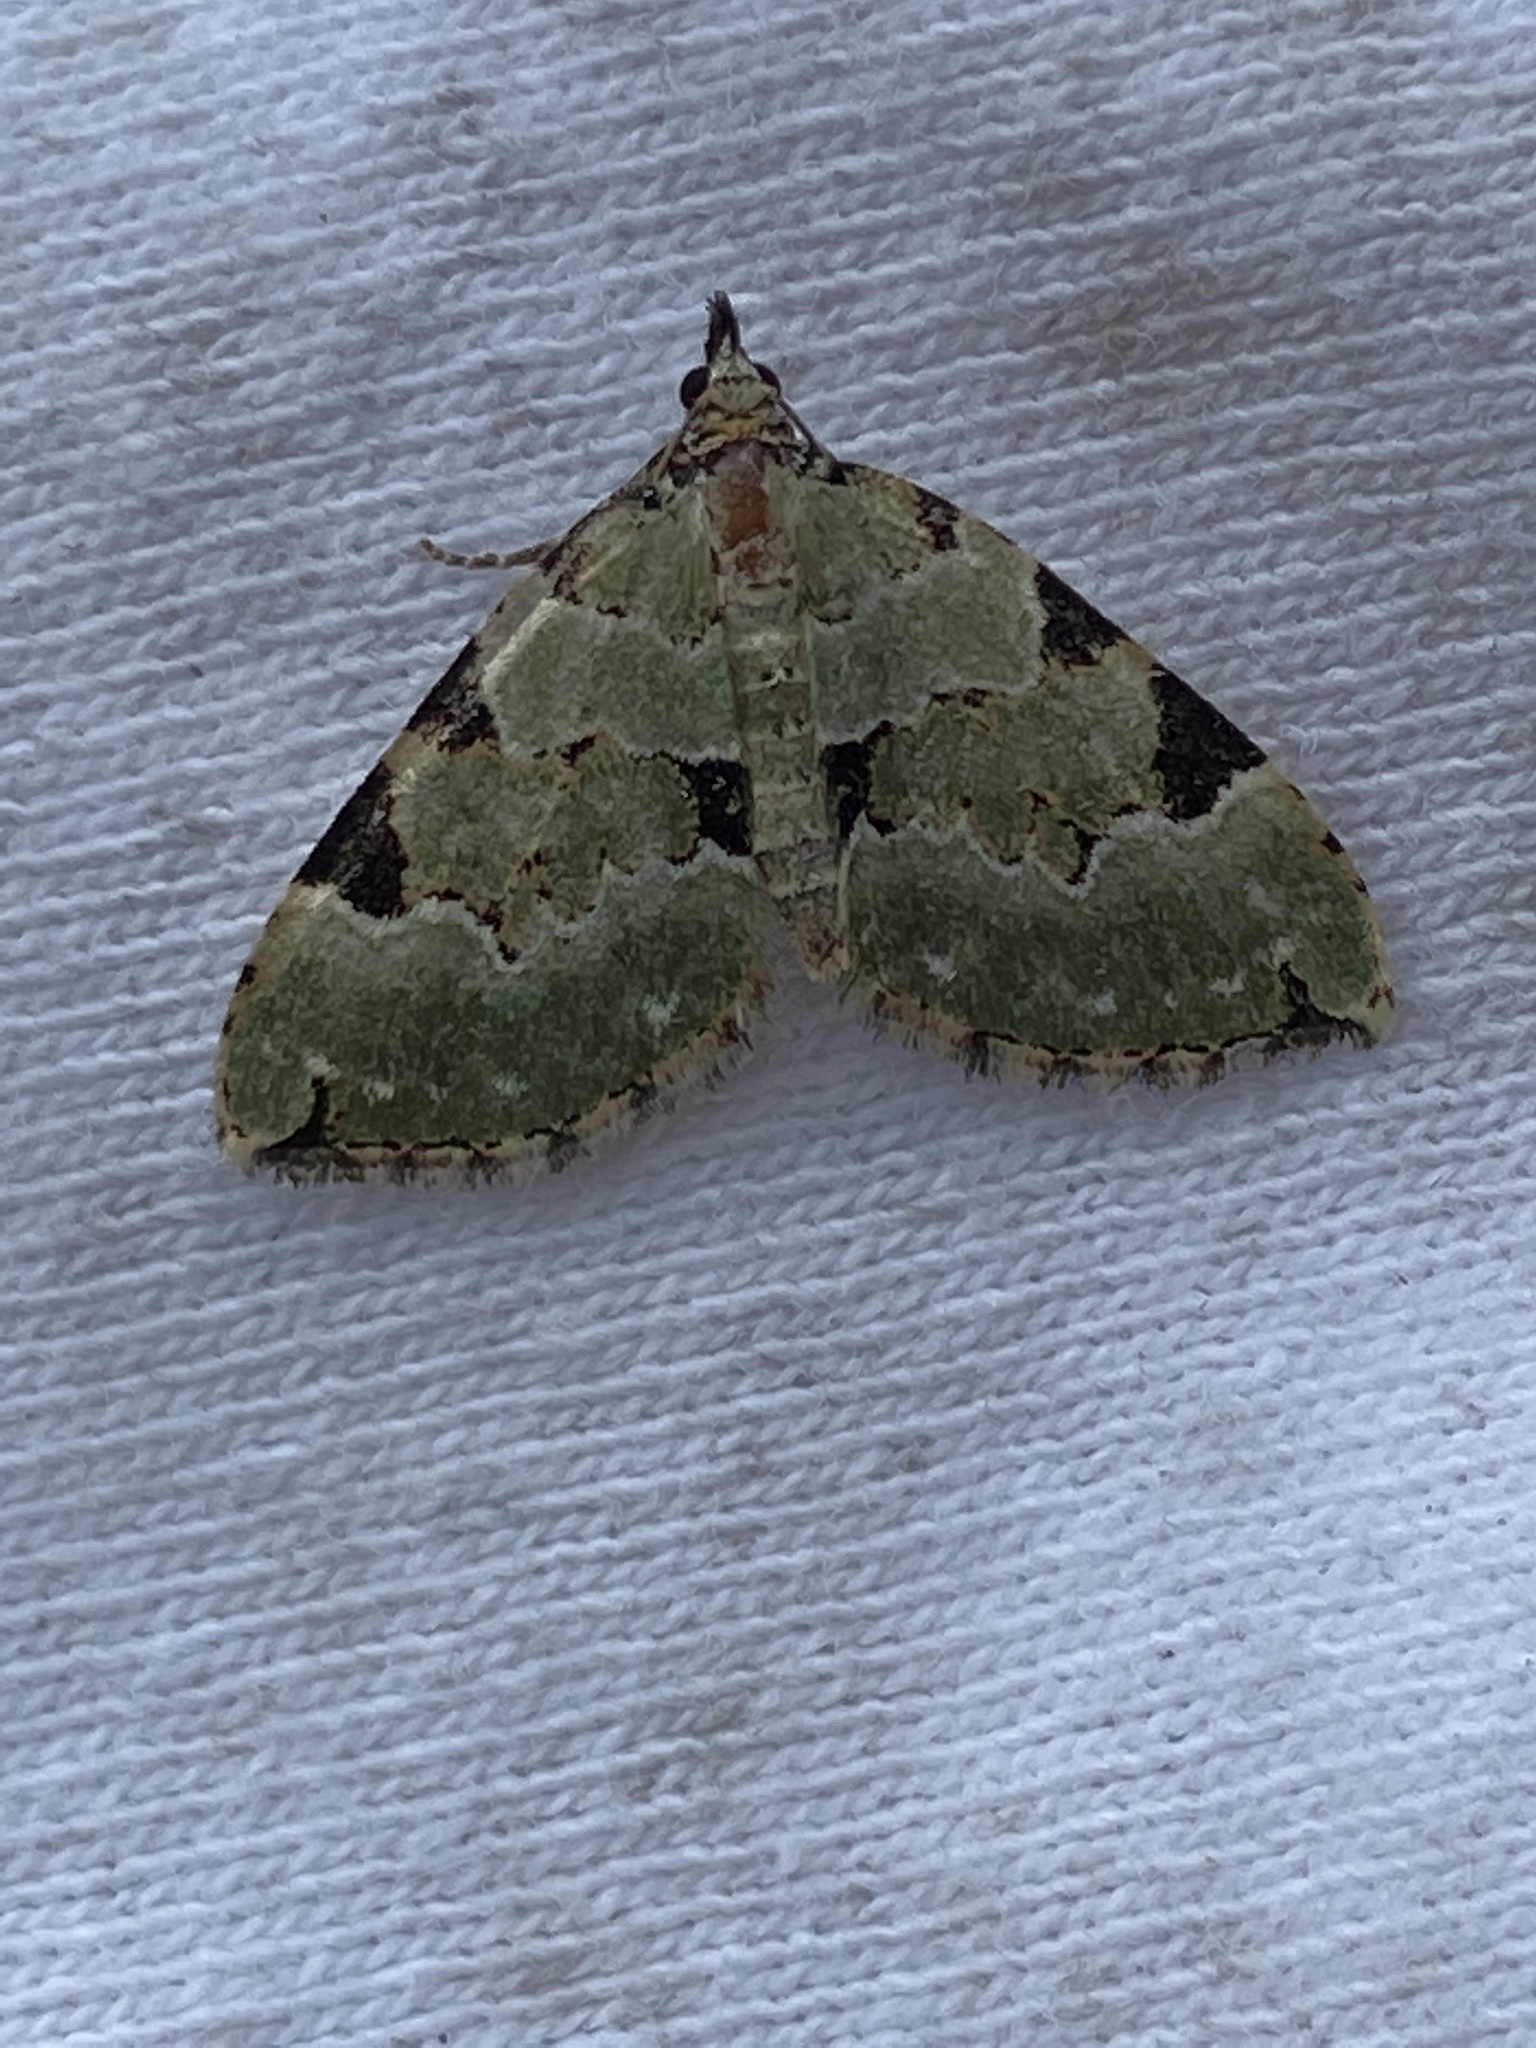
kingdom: Animalia
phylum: Arthropoda
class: Insecta
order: Lepidoptera
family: Geometridae
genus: Colostygia
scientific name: Colostygia pectinataria
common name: Green carpet
